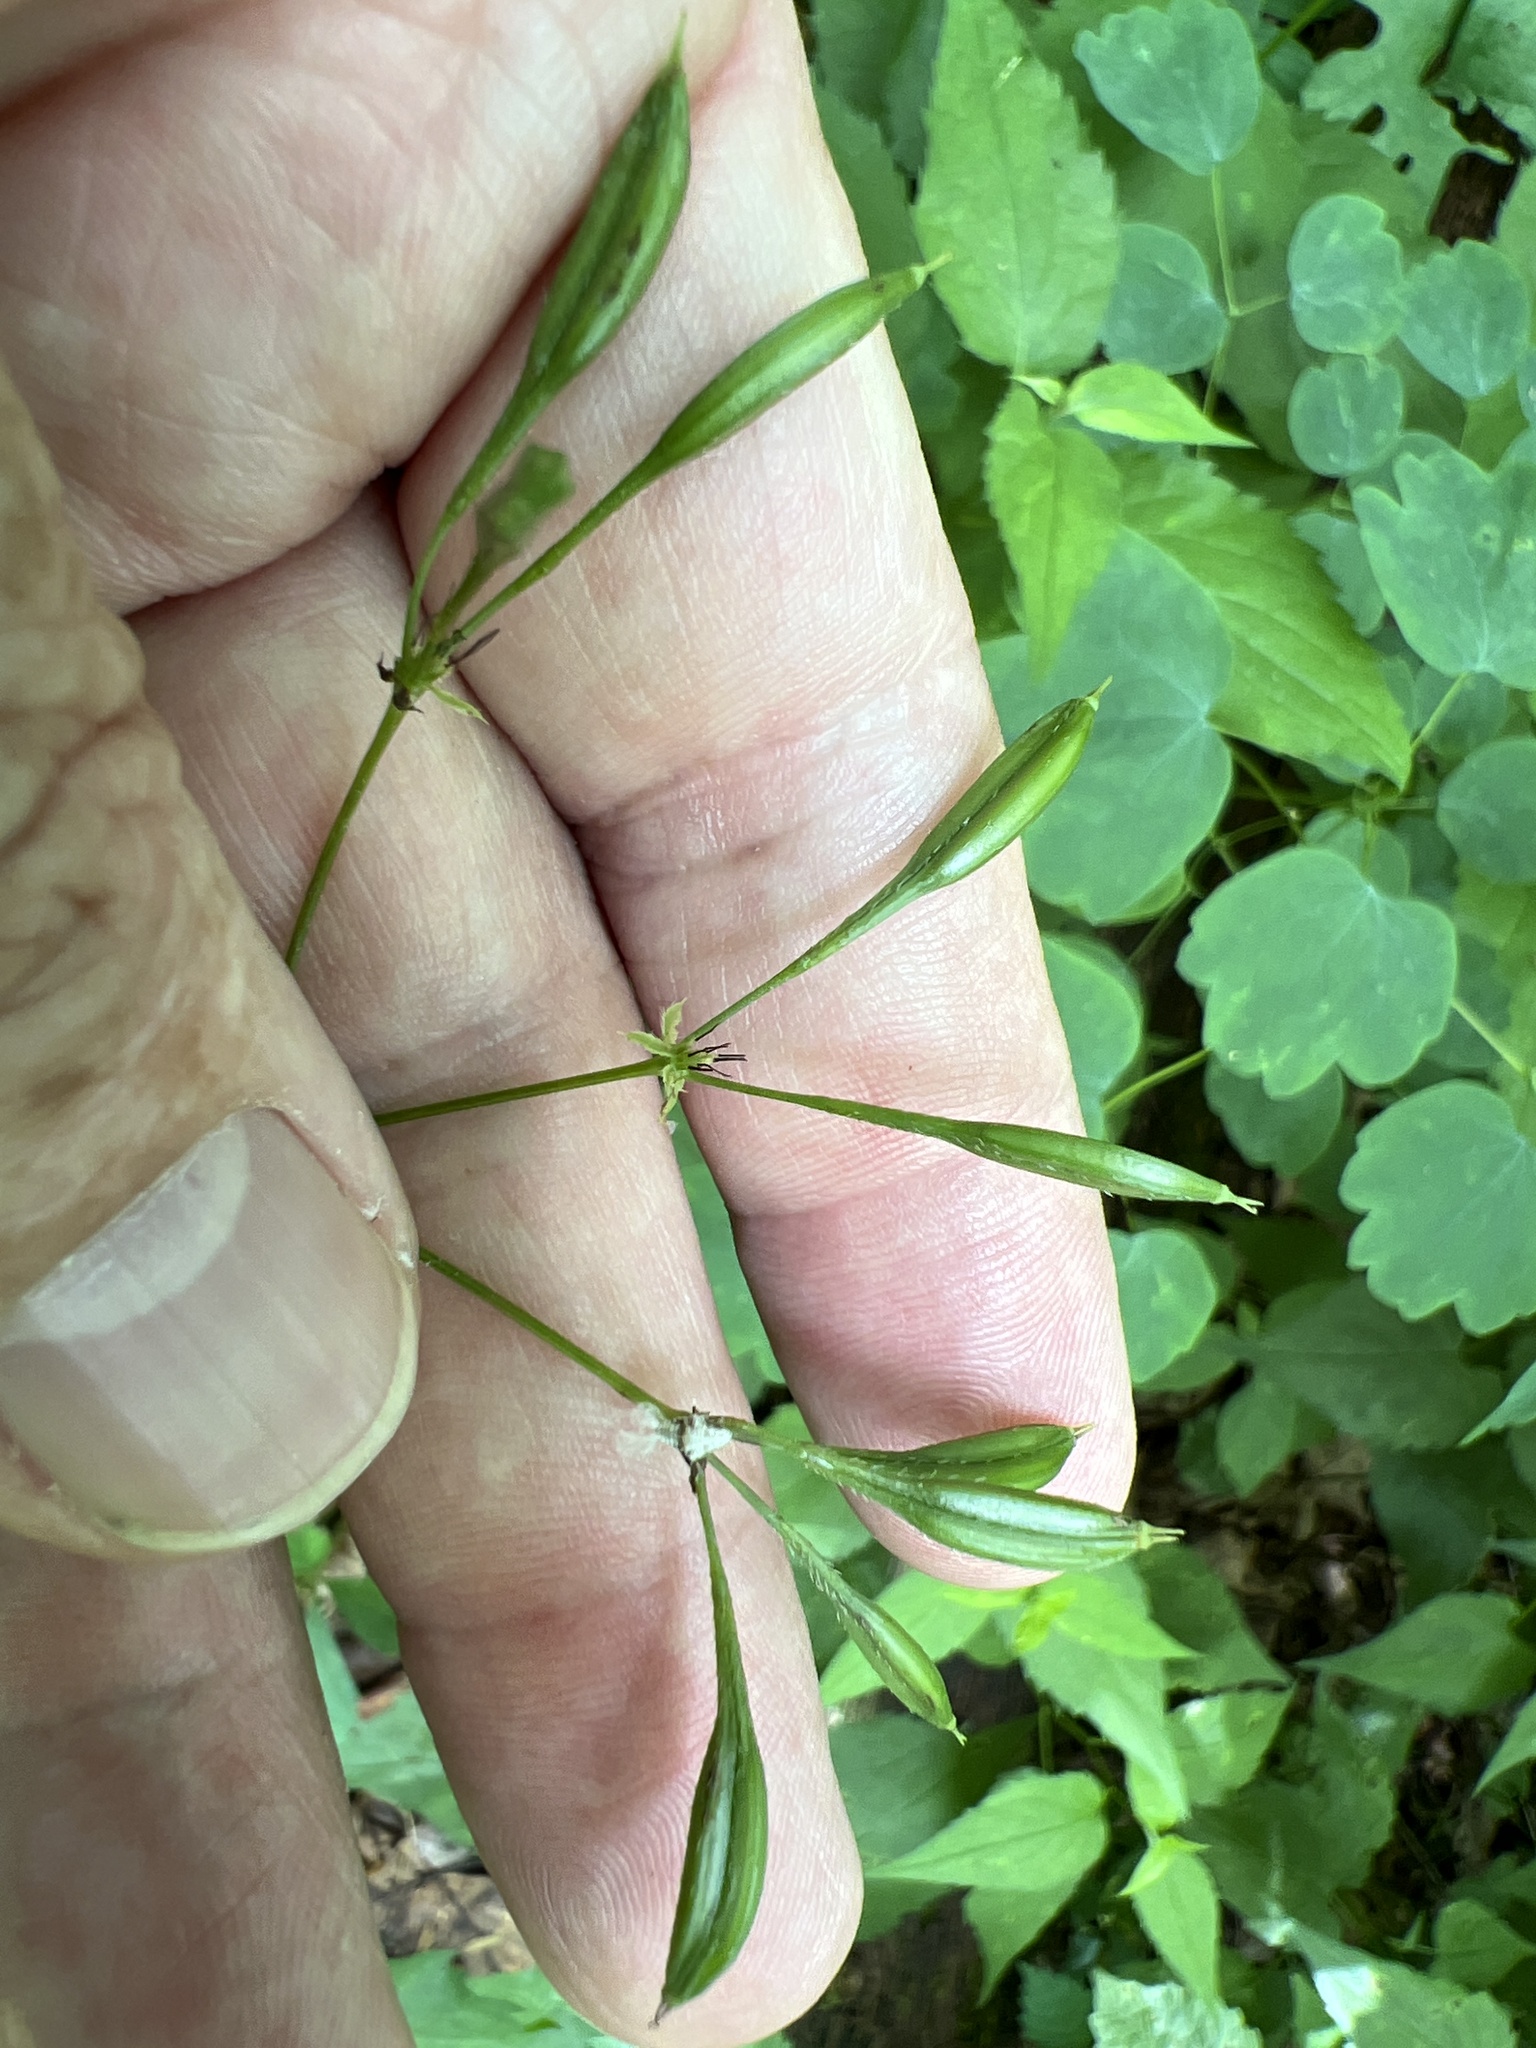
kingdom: Plantae
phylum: Tracheophyta
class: Magnoliopsida
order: Apiales
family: Apiaceae
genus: Osmorhiza
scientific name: Osmorhiza longistylis
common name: Smooth sweet cicely
